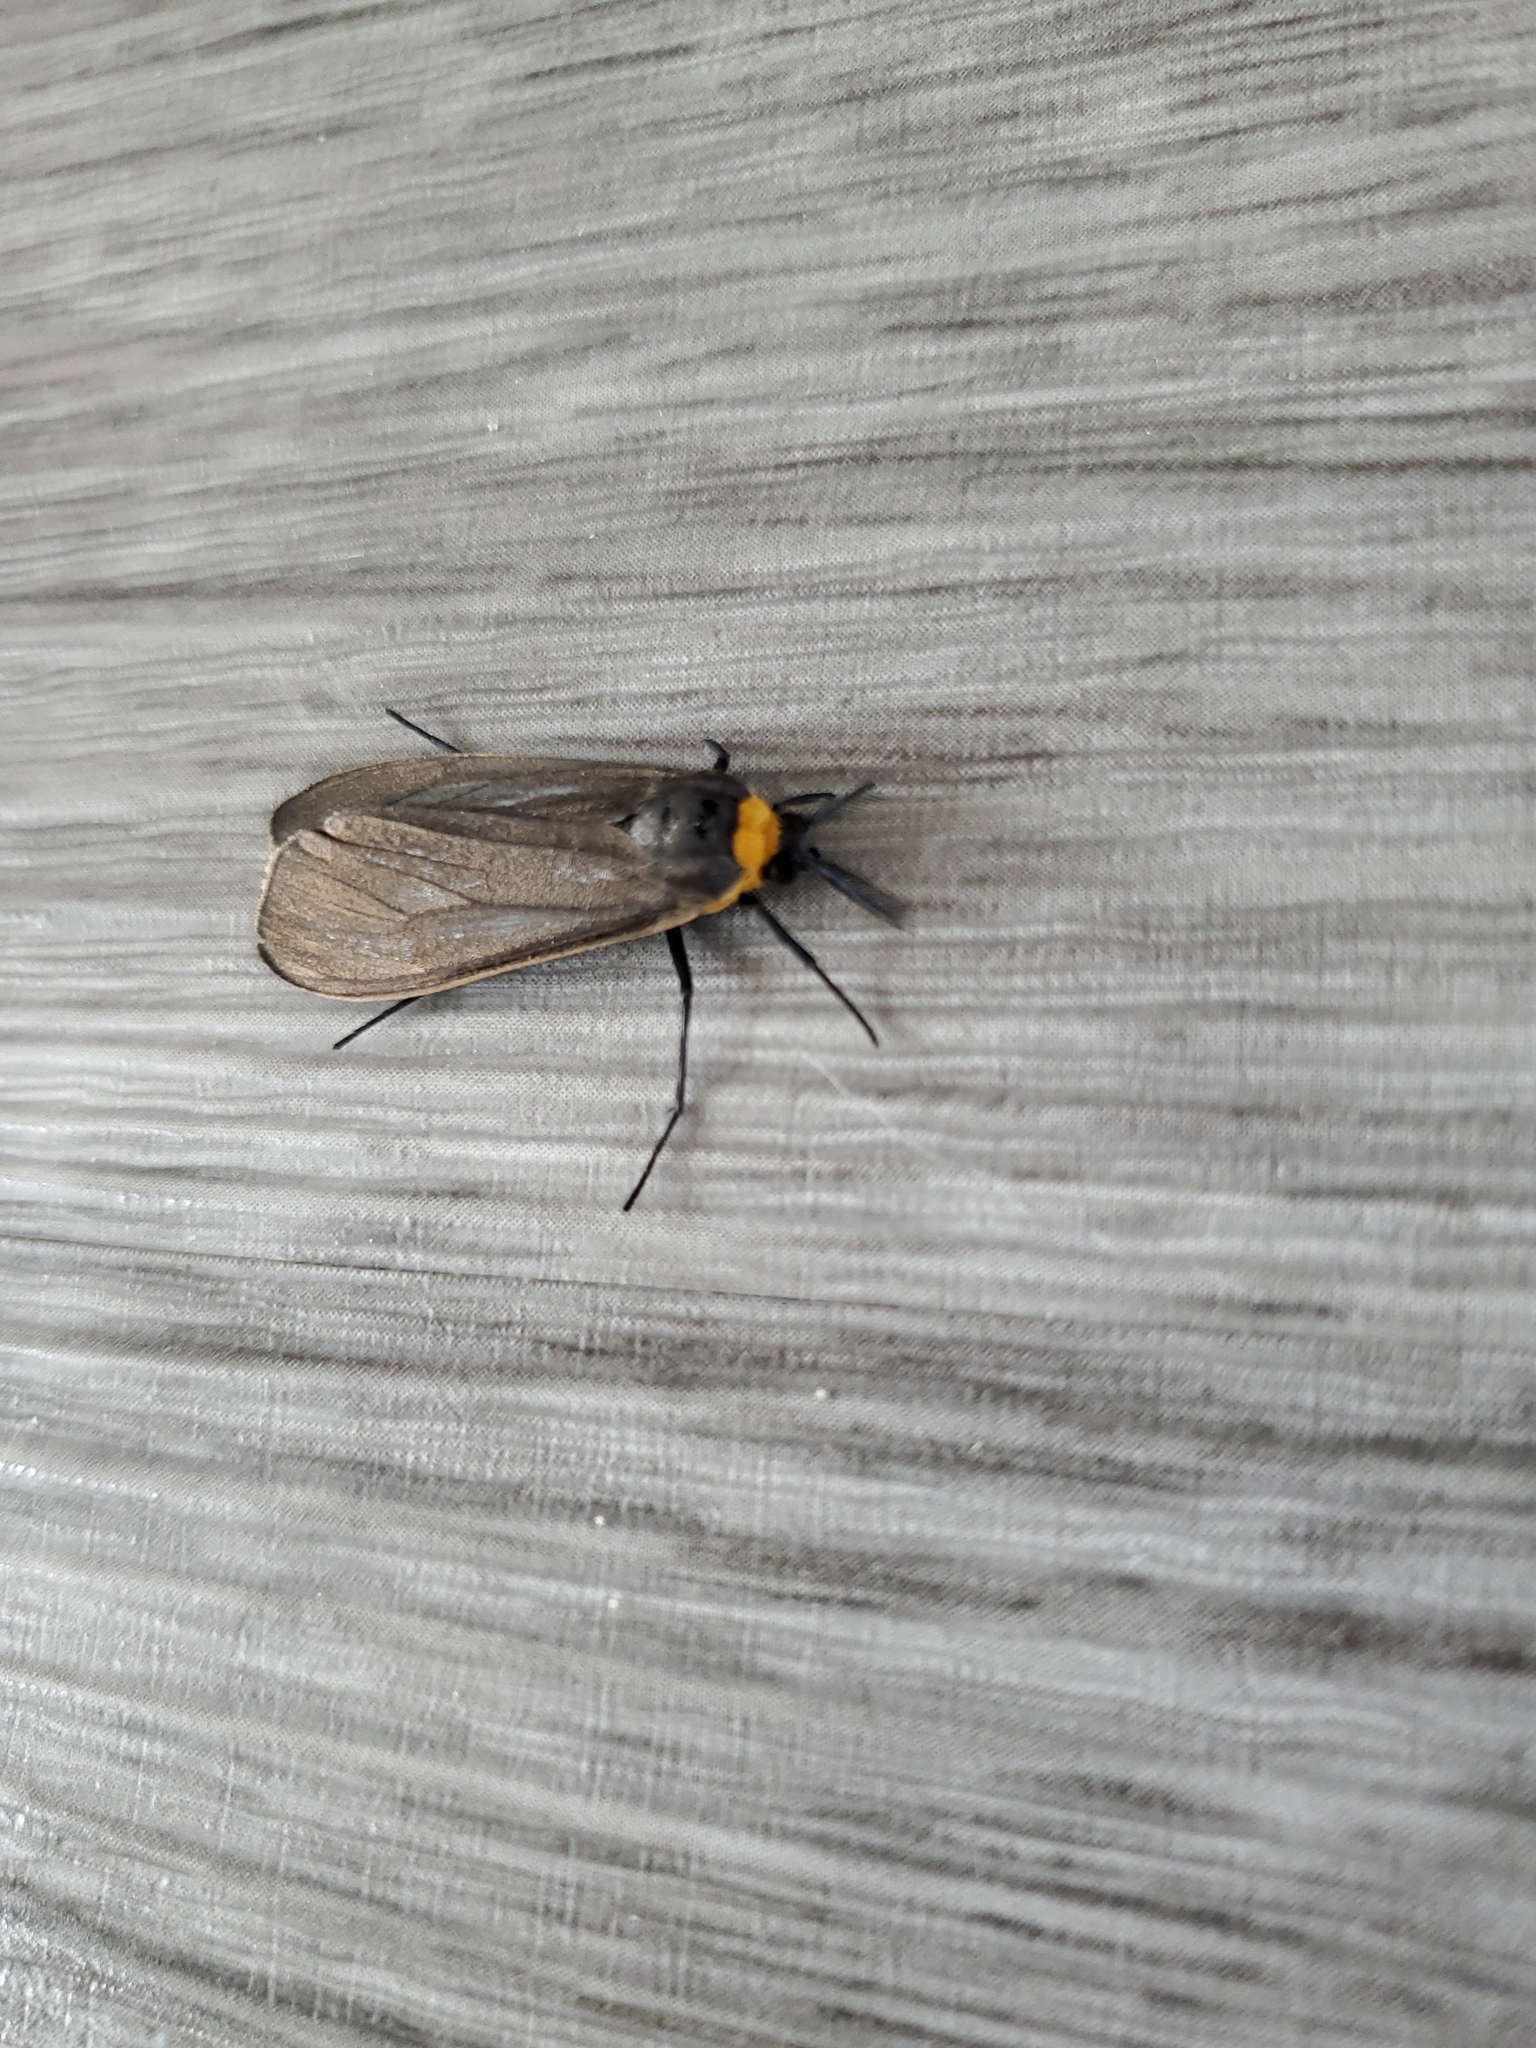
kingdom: Animalia
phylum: Arthropoda
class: Insecta
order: Lepidoptera
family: Erebidae
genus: Cisseps
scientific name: Cisseps fulvicollis
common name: Yellow-collared scape moth
